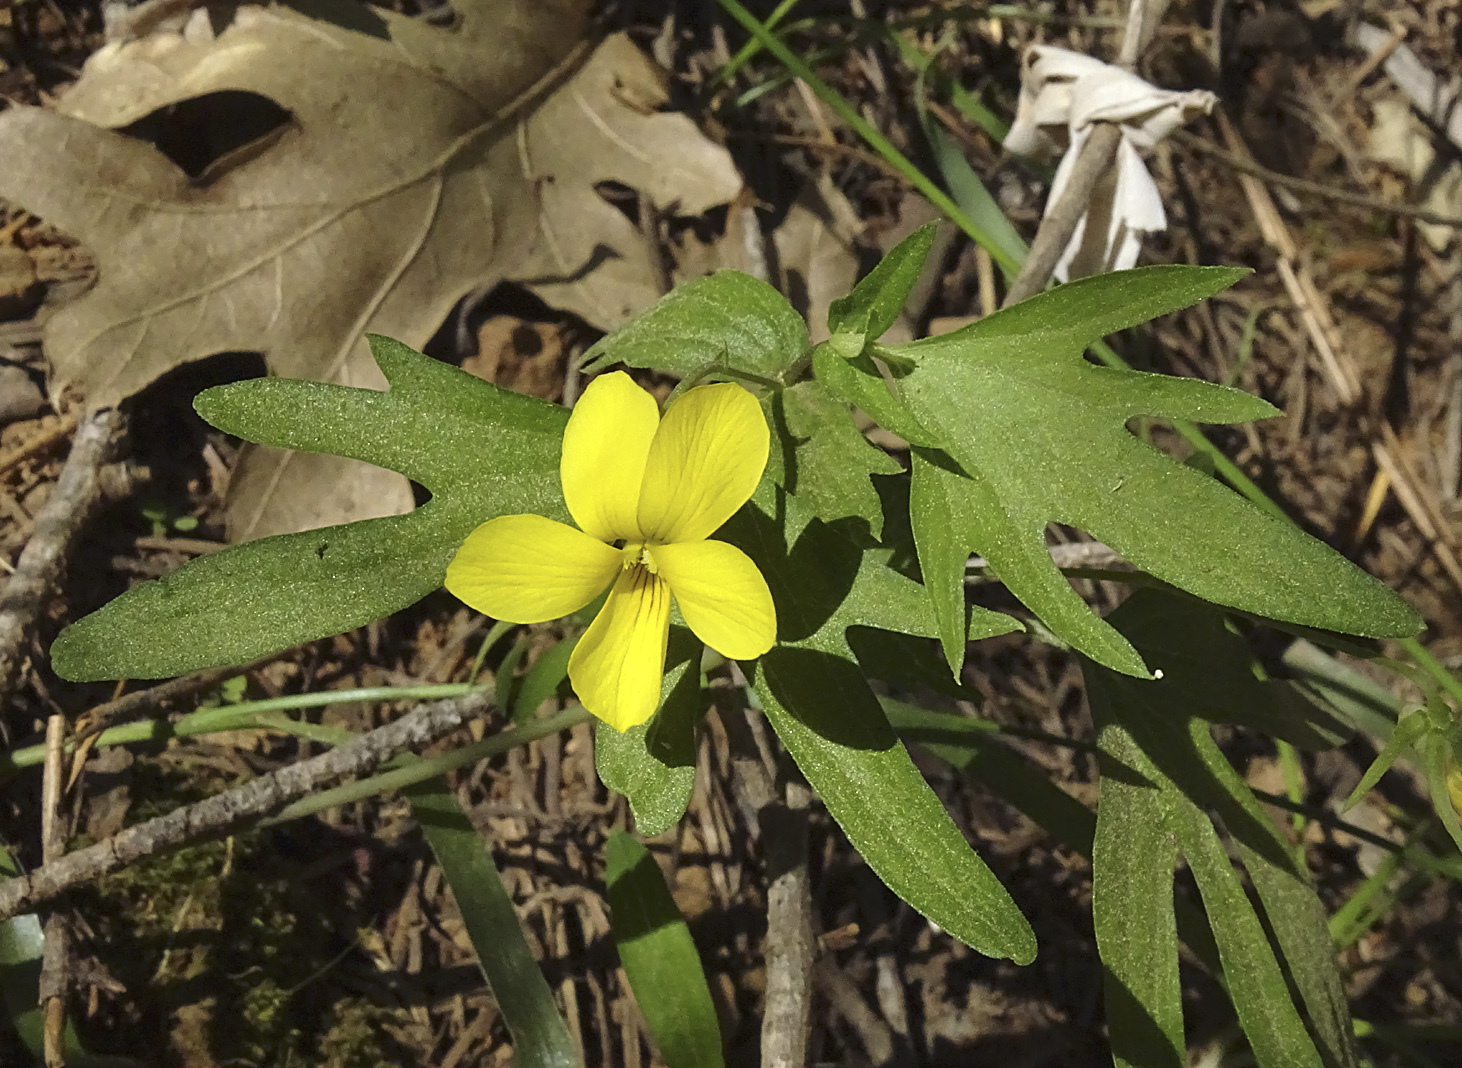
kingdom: Plantae
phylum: Tracheophyta
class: Magnoliopsida
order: Malpighiales
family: Violaceae
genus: Viola
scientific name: Viola lobata
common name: Pine violet
